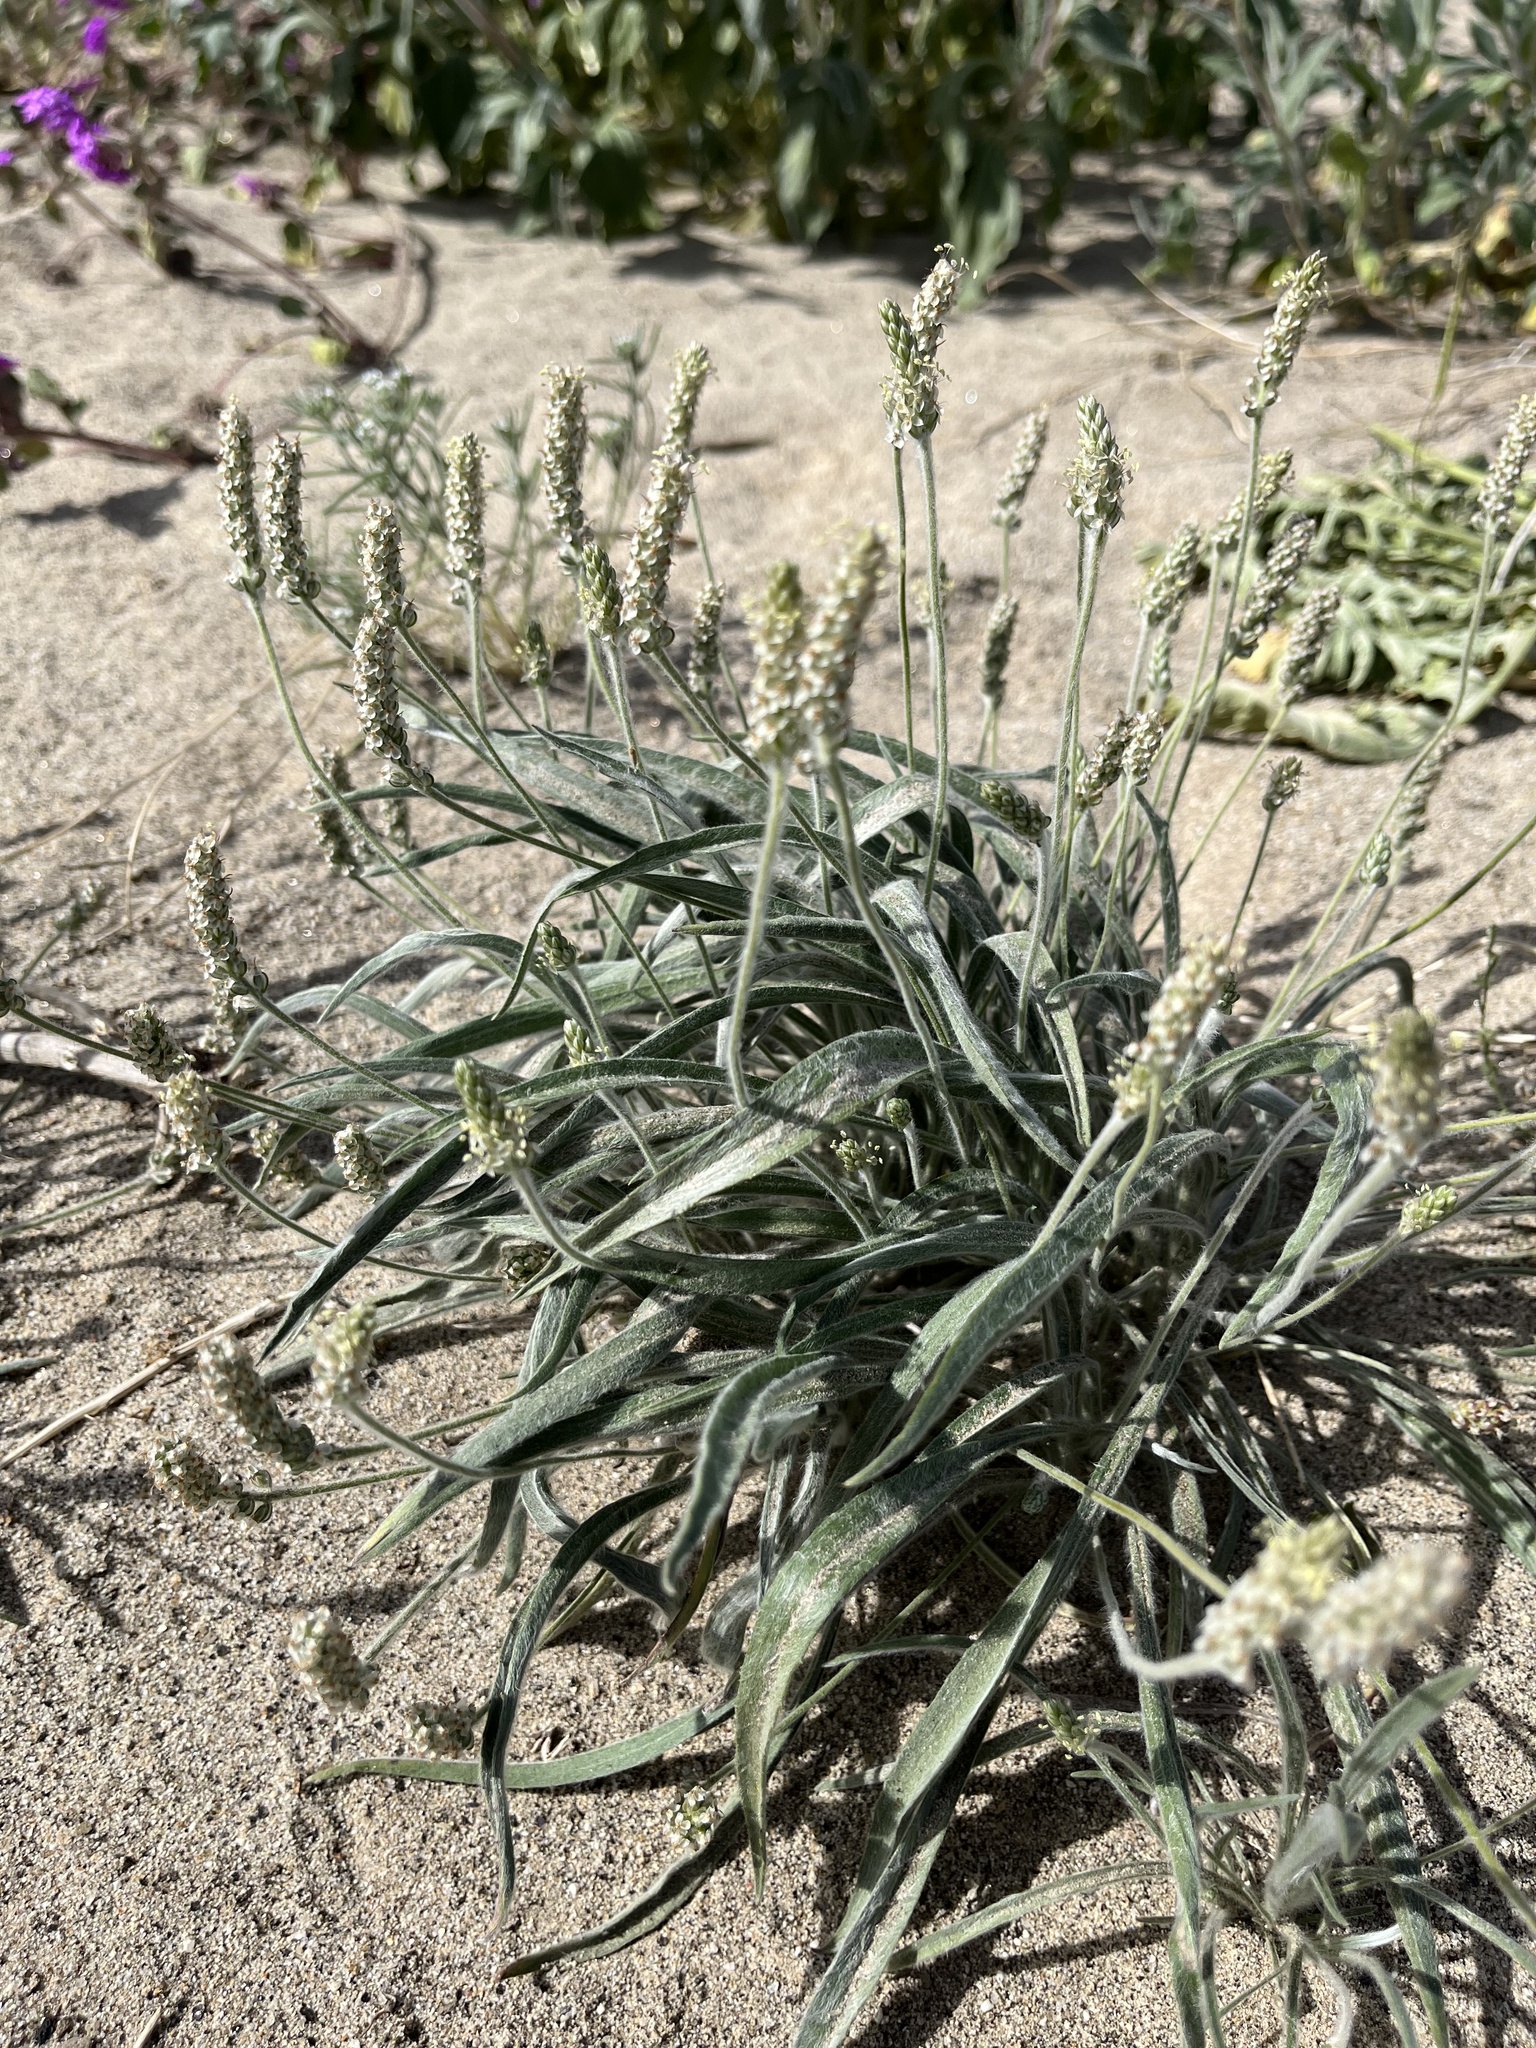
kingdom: Plantae
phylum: Tracheophyta
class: Magnoliopsida
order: Lamiales
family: Plantaginaceae
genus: Plantago
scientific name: Plantago ovata
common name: Blond plantain
